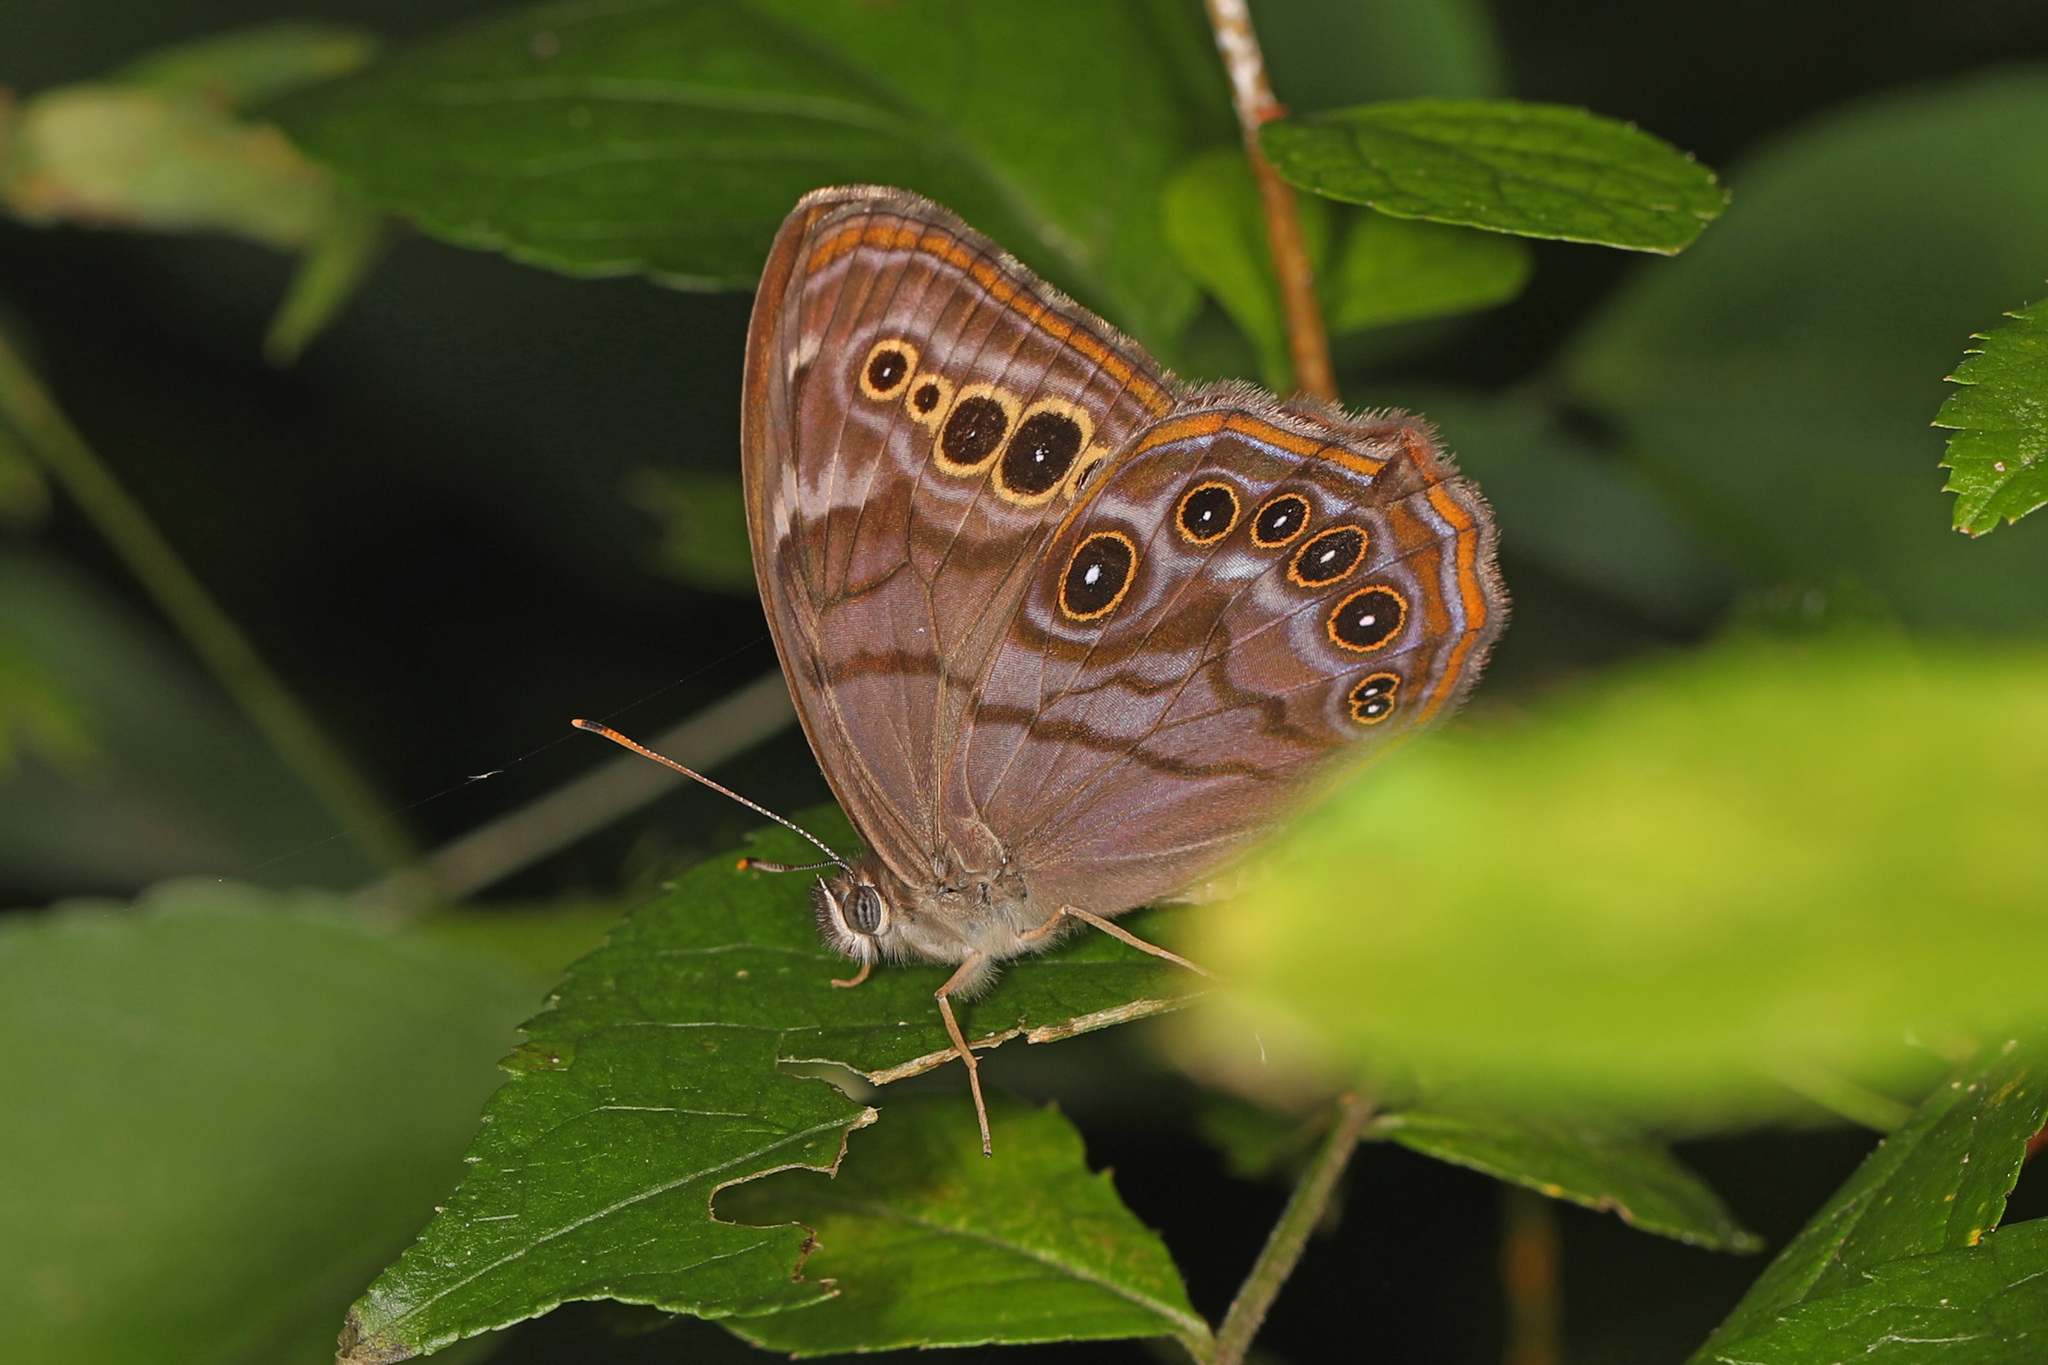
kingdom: Animalia
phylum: Arthropoda
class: Insecta
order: Lepidoptera
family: Nymphalidae
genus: Lethe
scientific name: Lethe anthedon
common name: Northern pearly-eye
